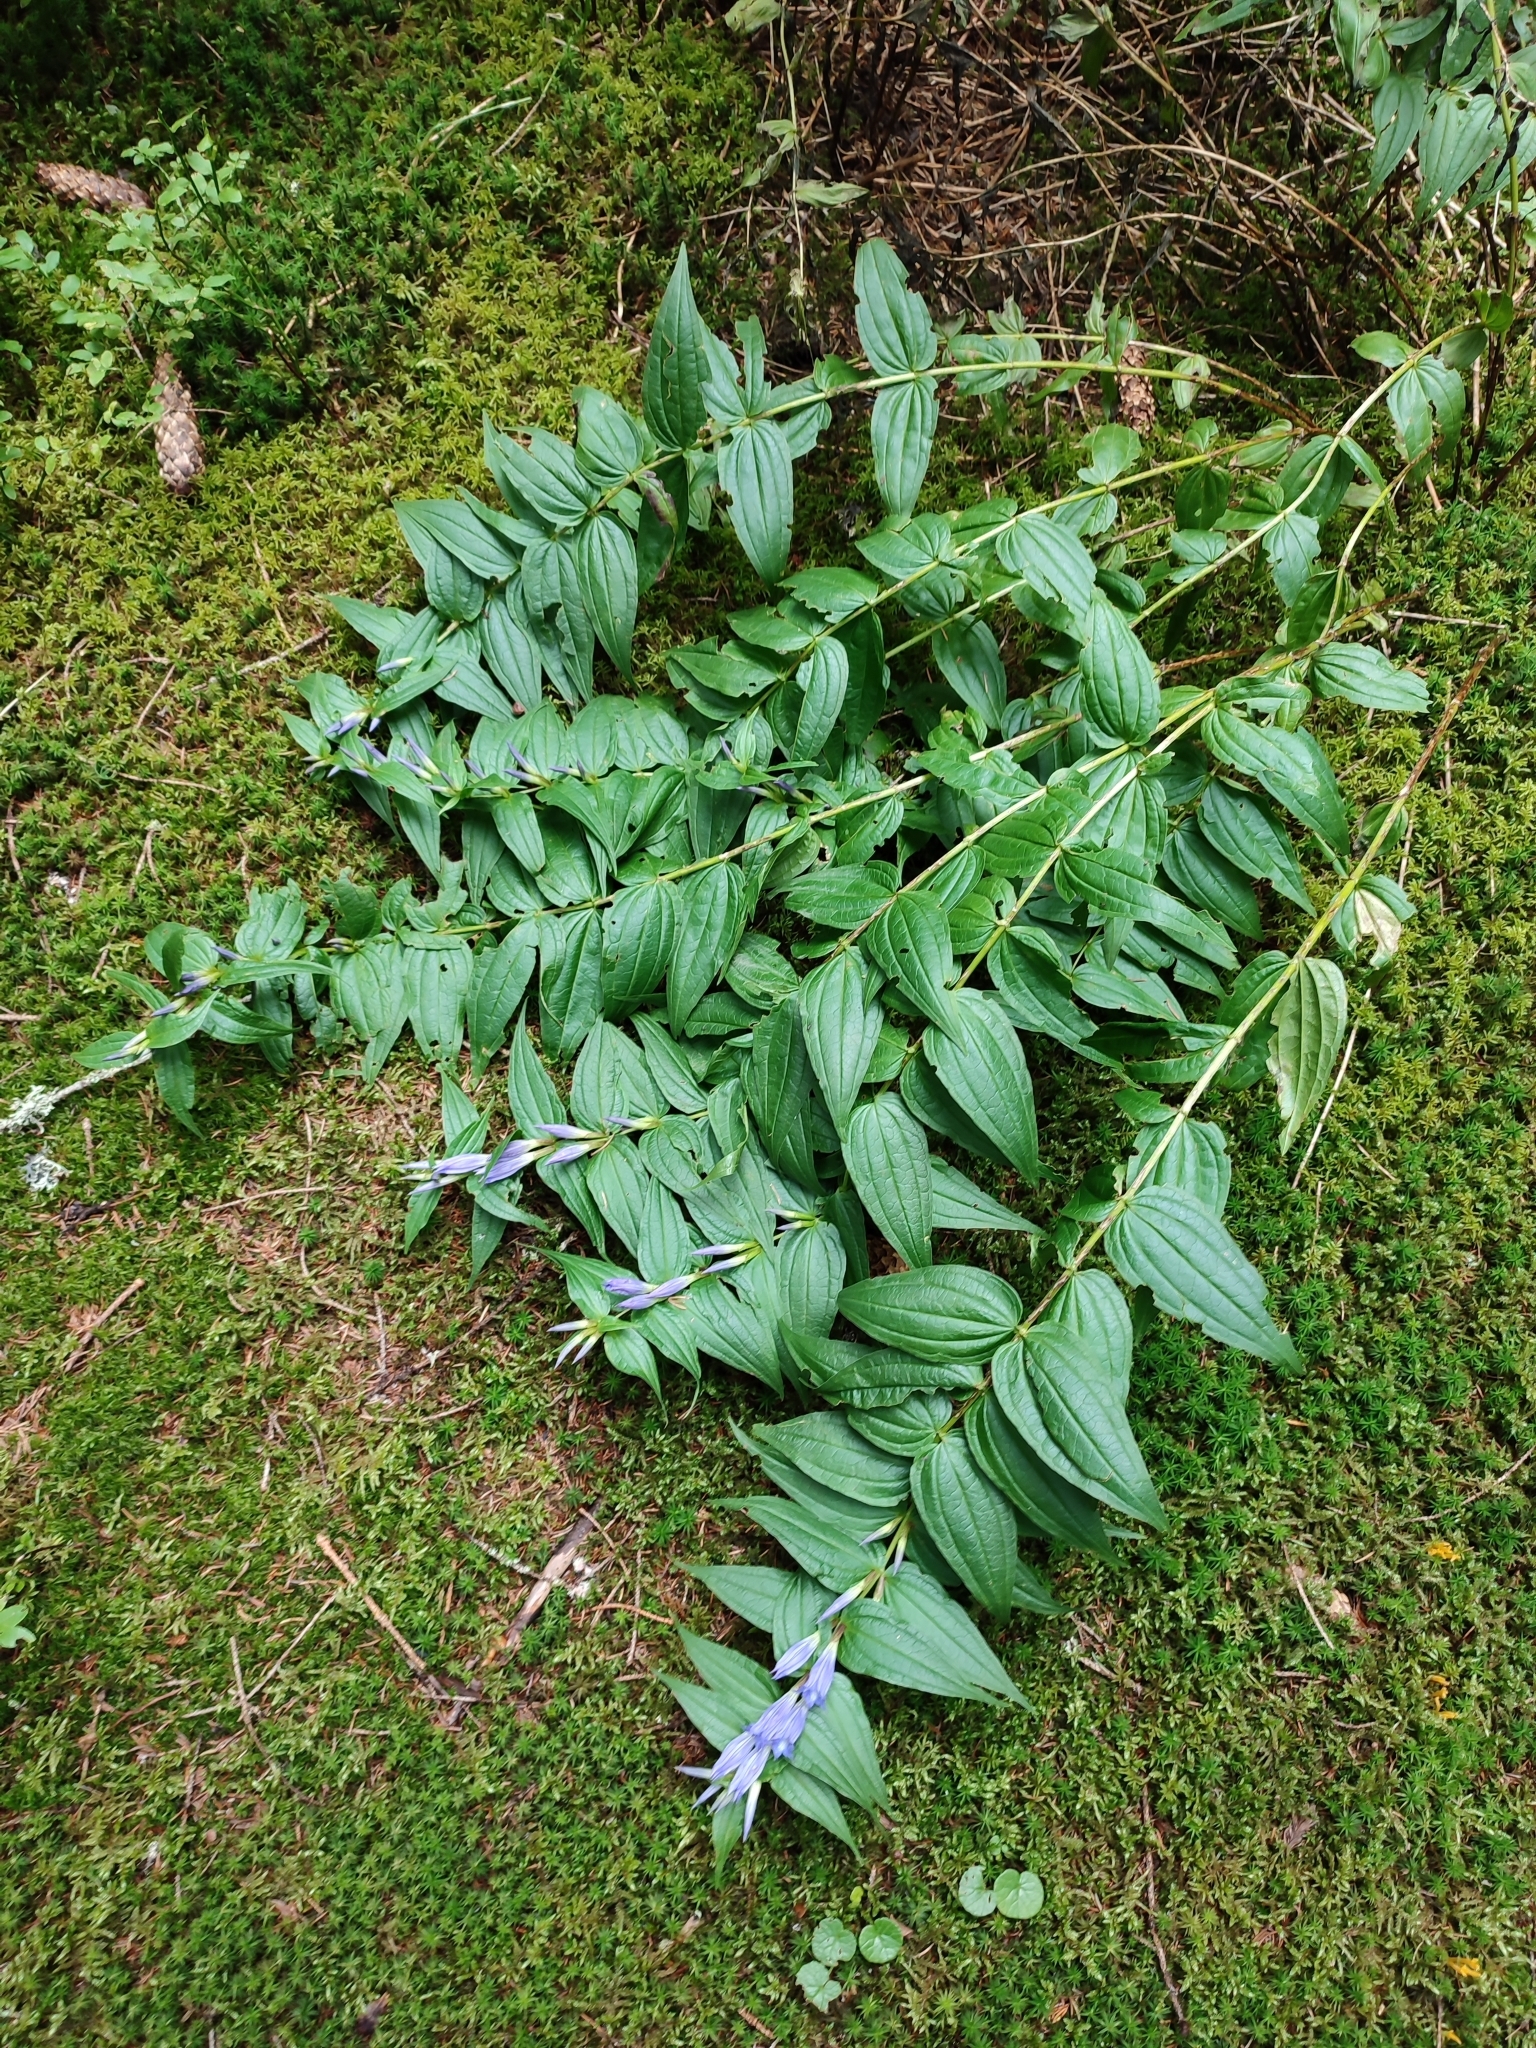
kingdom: Plantae
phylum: Tracheophyta
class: Magnoliopsida
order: Gentianales
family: Gentianaceae
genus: Gentiana
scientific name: Gentiana asclepiadea
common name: Willow gentian
